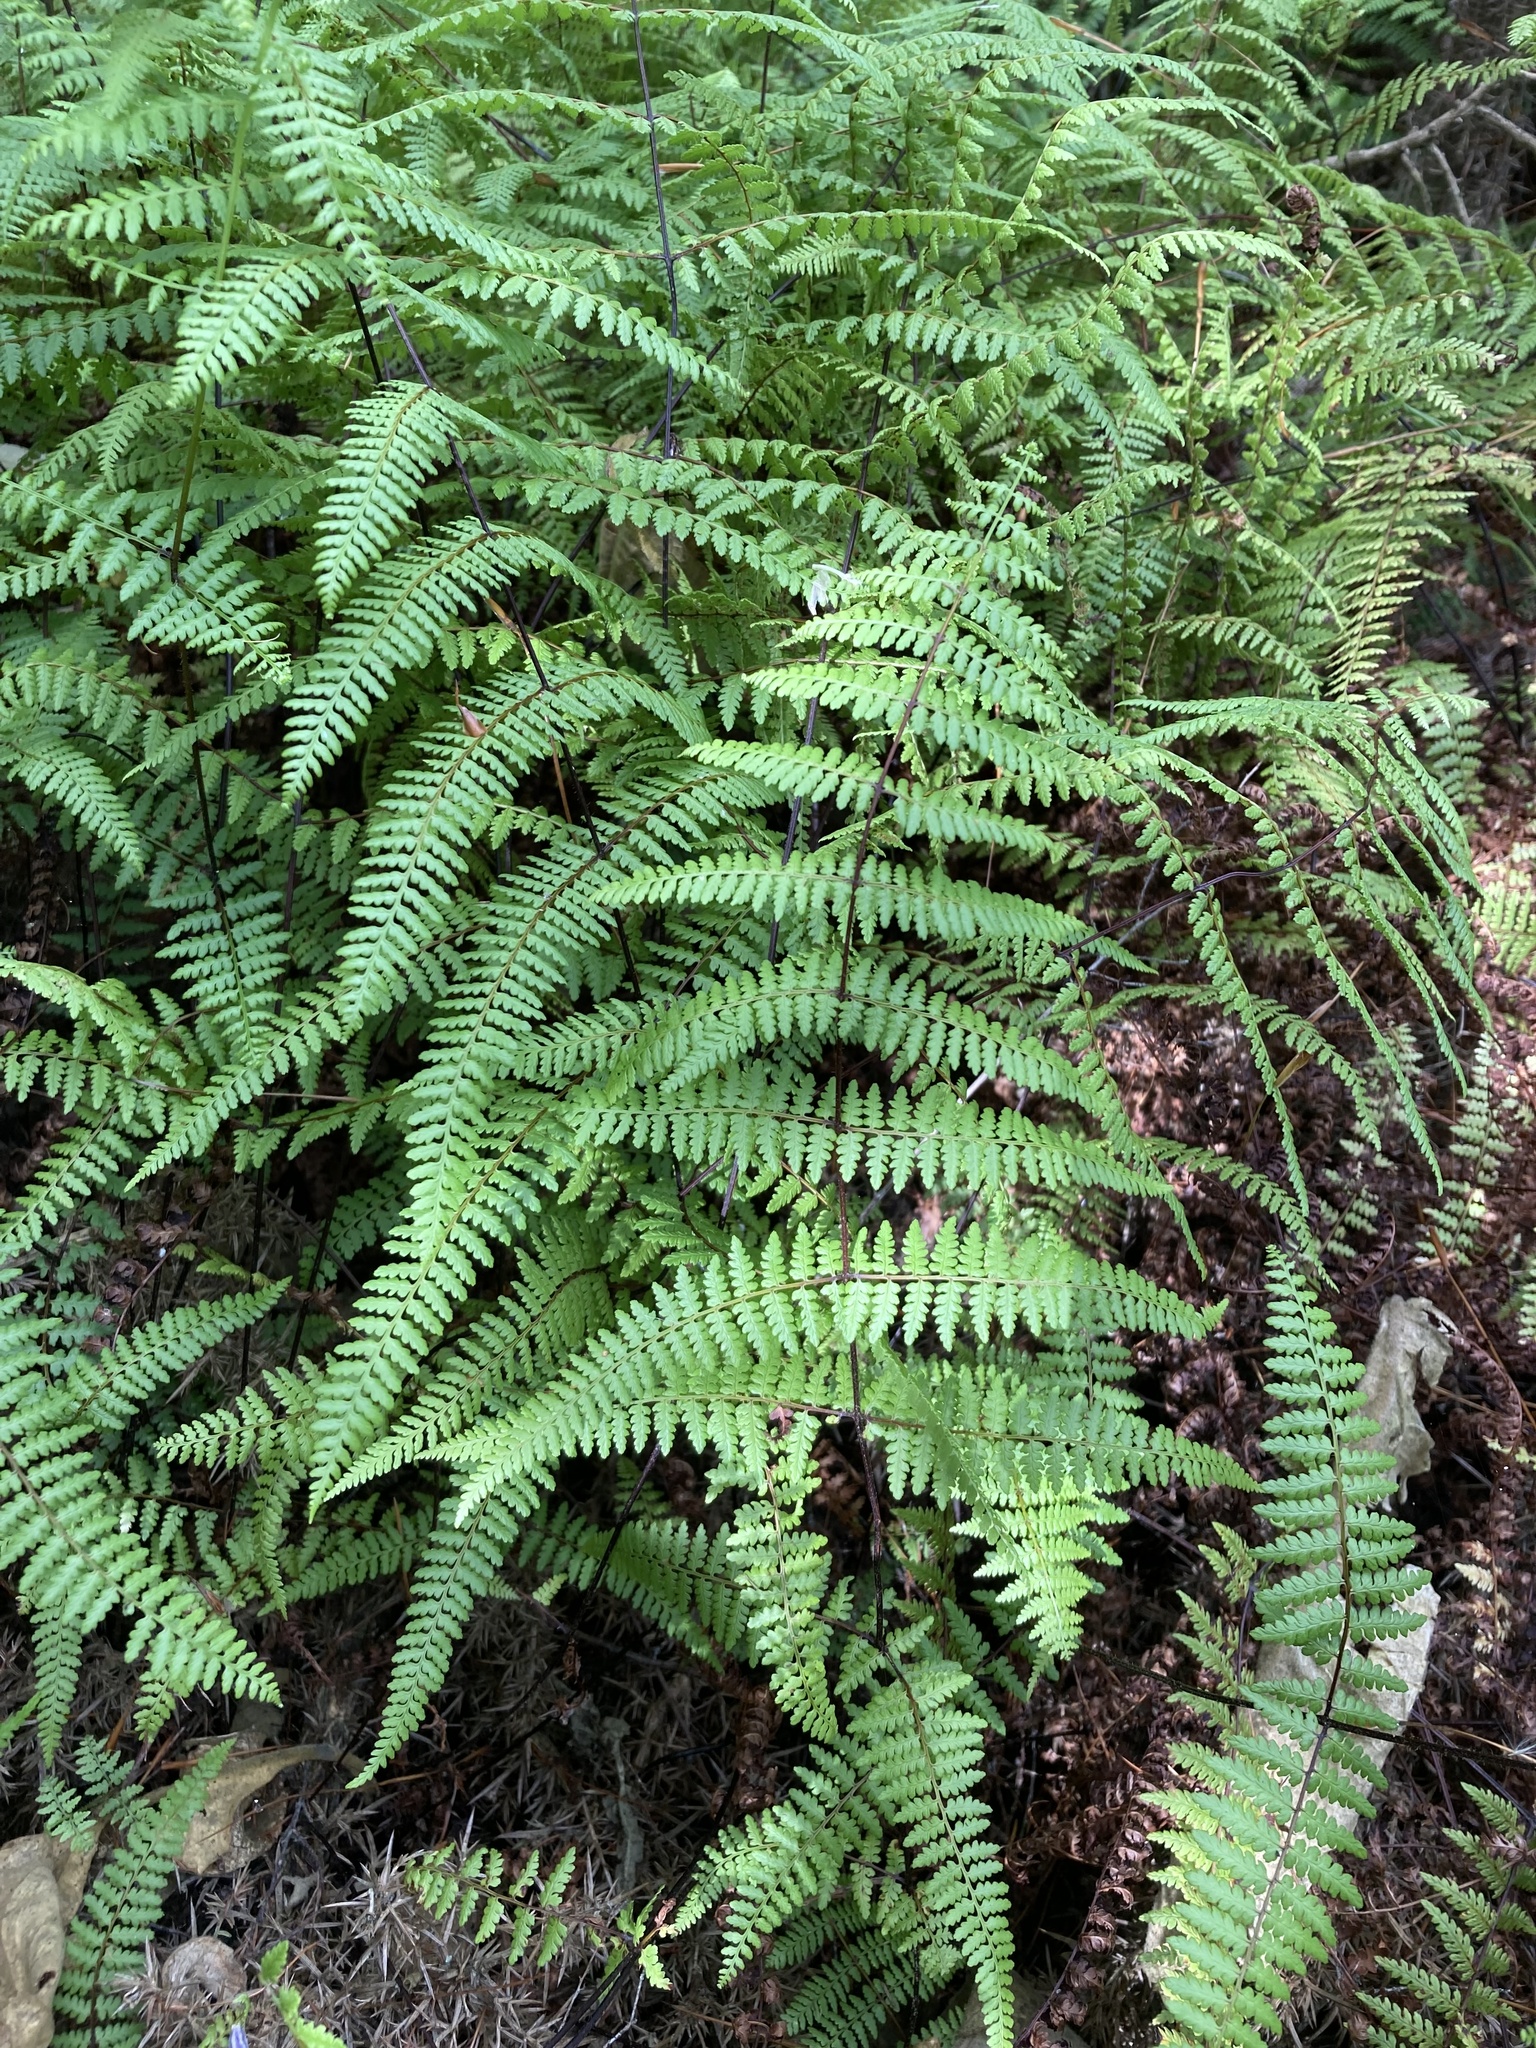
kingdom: Plantae
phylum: Tracheophyta
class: Polypodiopsida
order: Polypodiales
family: Dennstaedtiaceae
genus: Hiya
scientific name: Hiya distans
